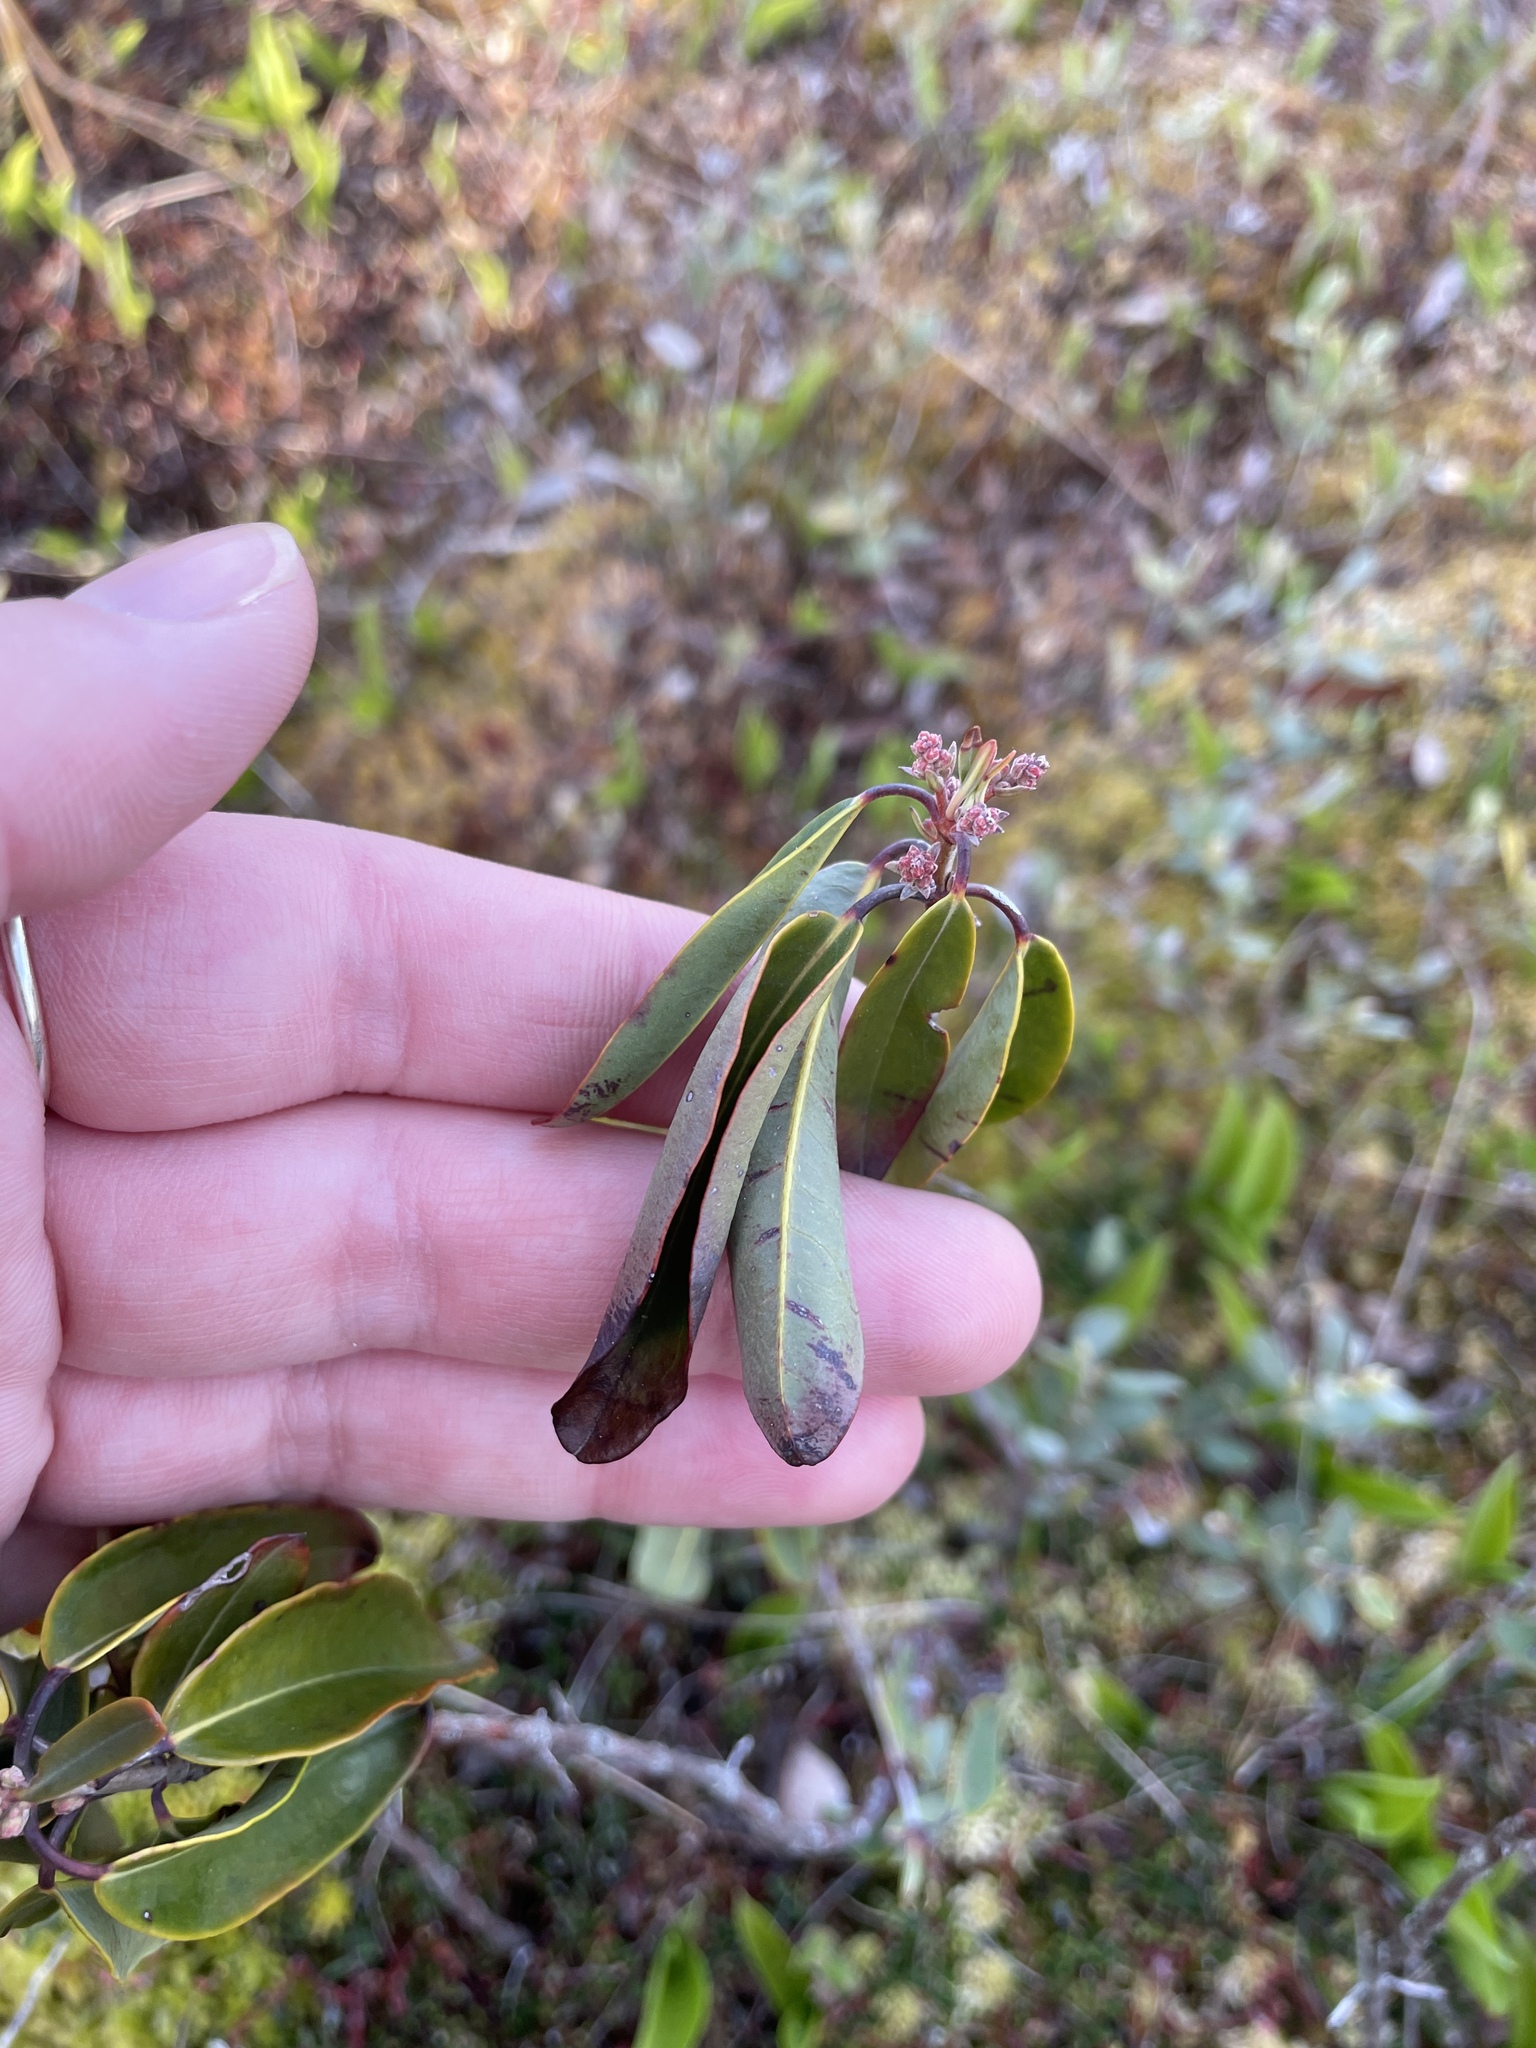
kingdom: Plantae
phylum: Tracheophyta
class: Magnoliopsida
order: Ericales
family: Ericaceae
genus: Kalmia
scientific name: Kalmia angustifolia
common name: Sheep-laurel
